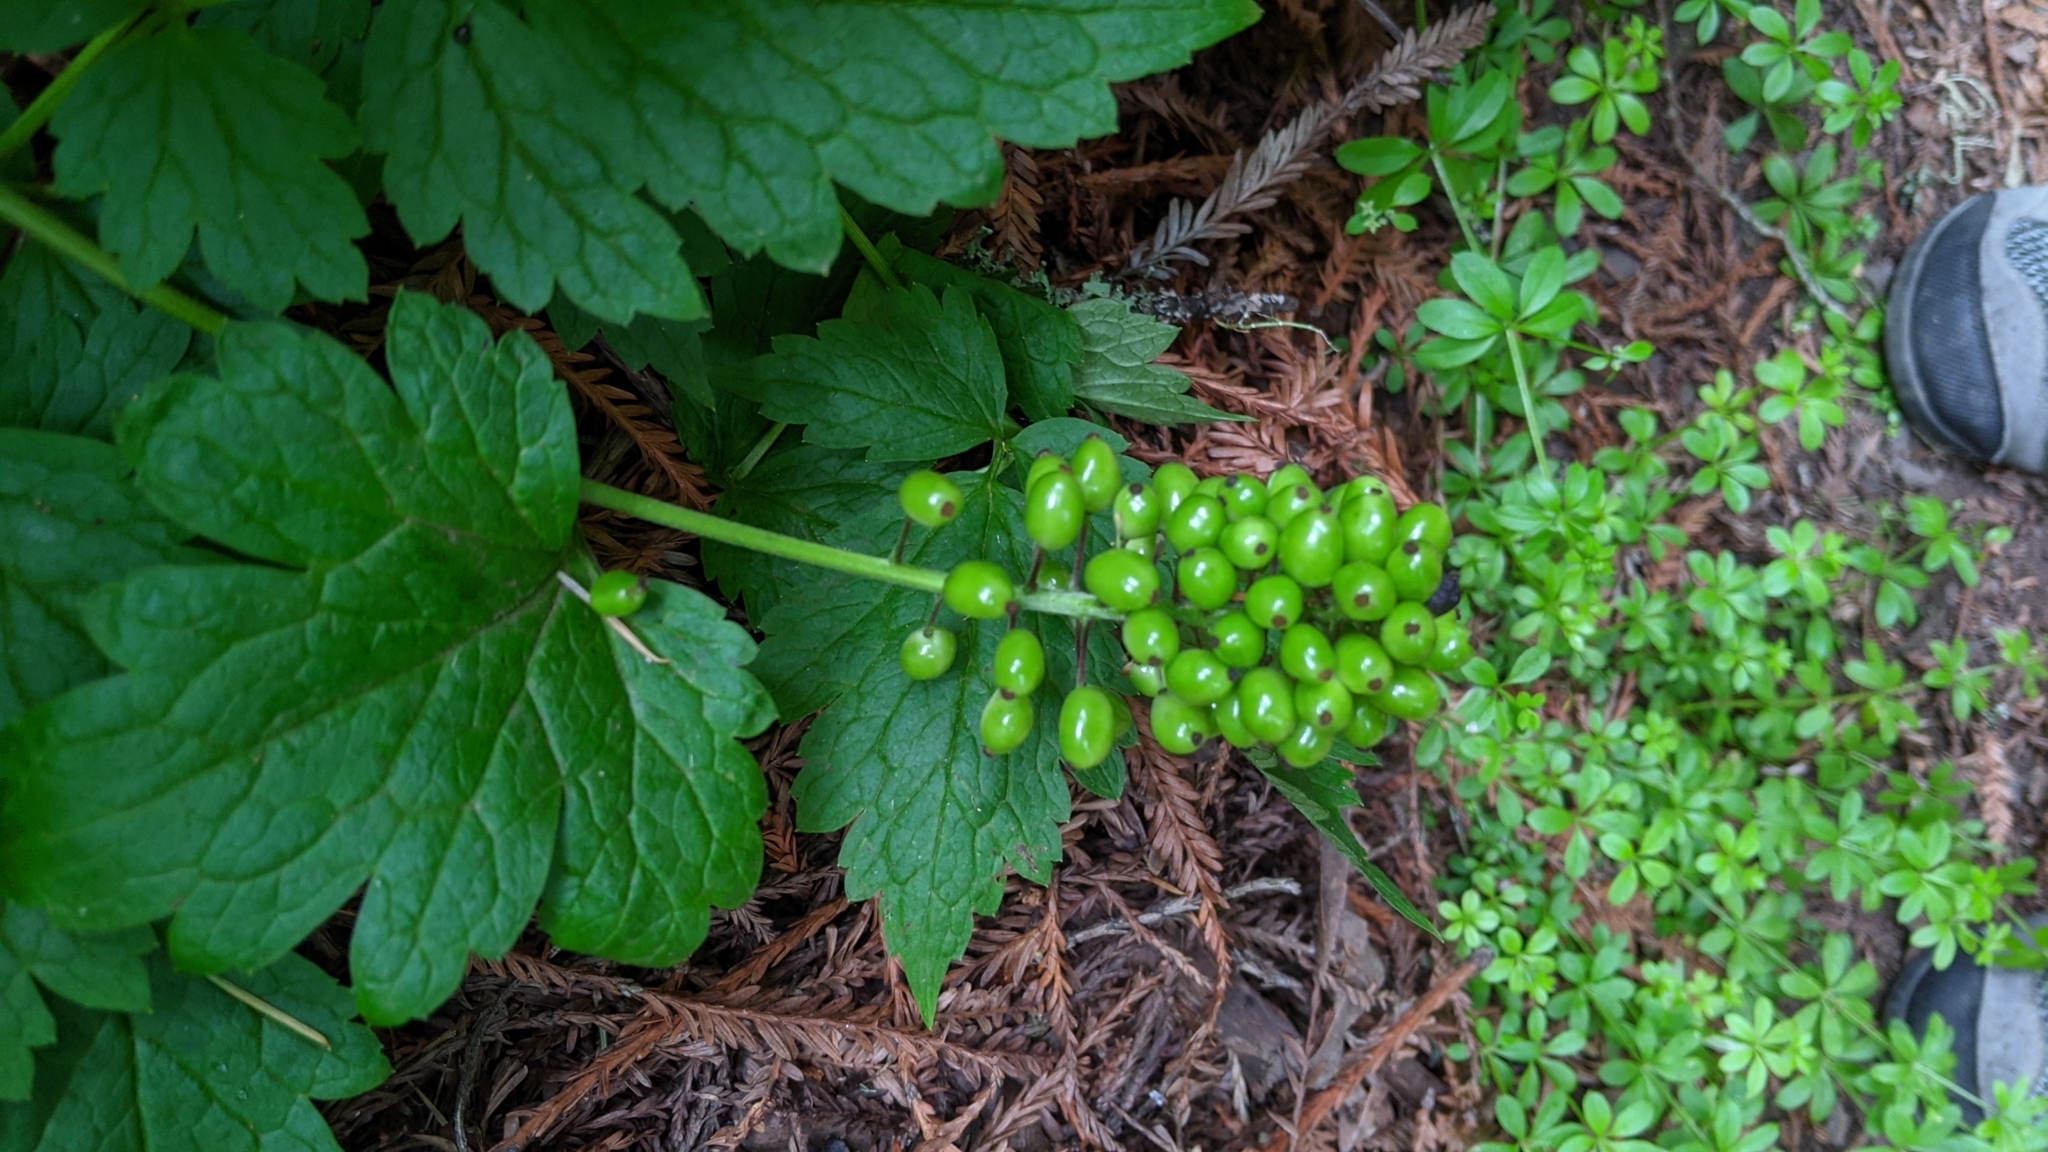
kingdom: Plantae
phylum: Tracheophyta
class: Magnoliopsida
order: Ranunculales
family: Ranunculaceae
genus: Actaea
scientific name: Actaea rubra
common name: Red baneberry
